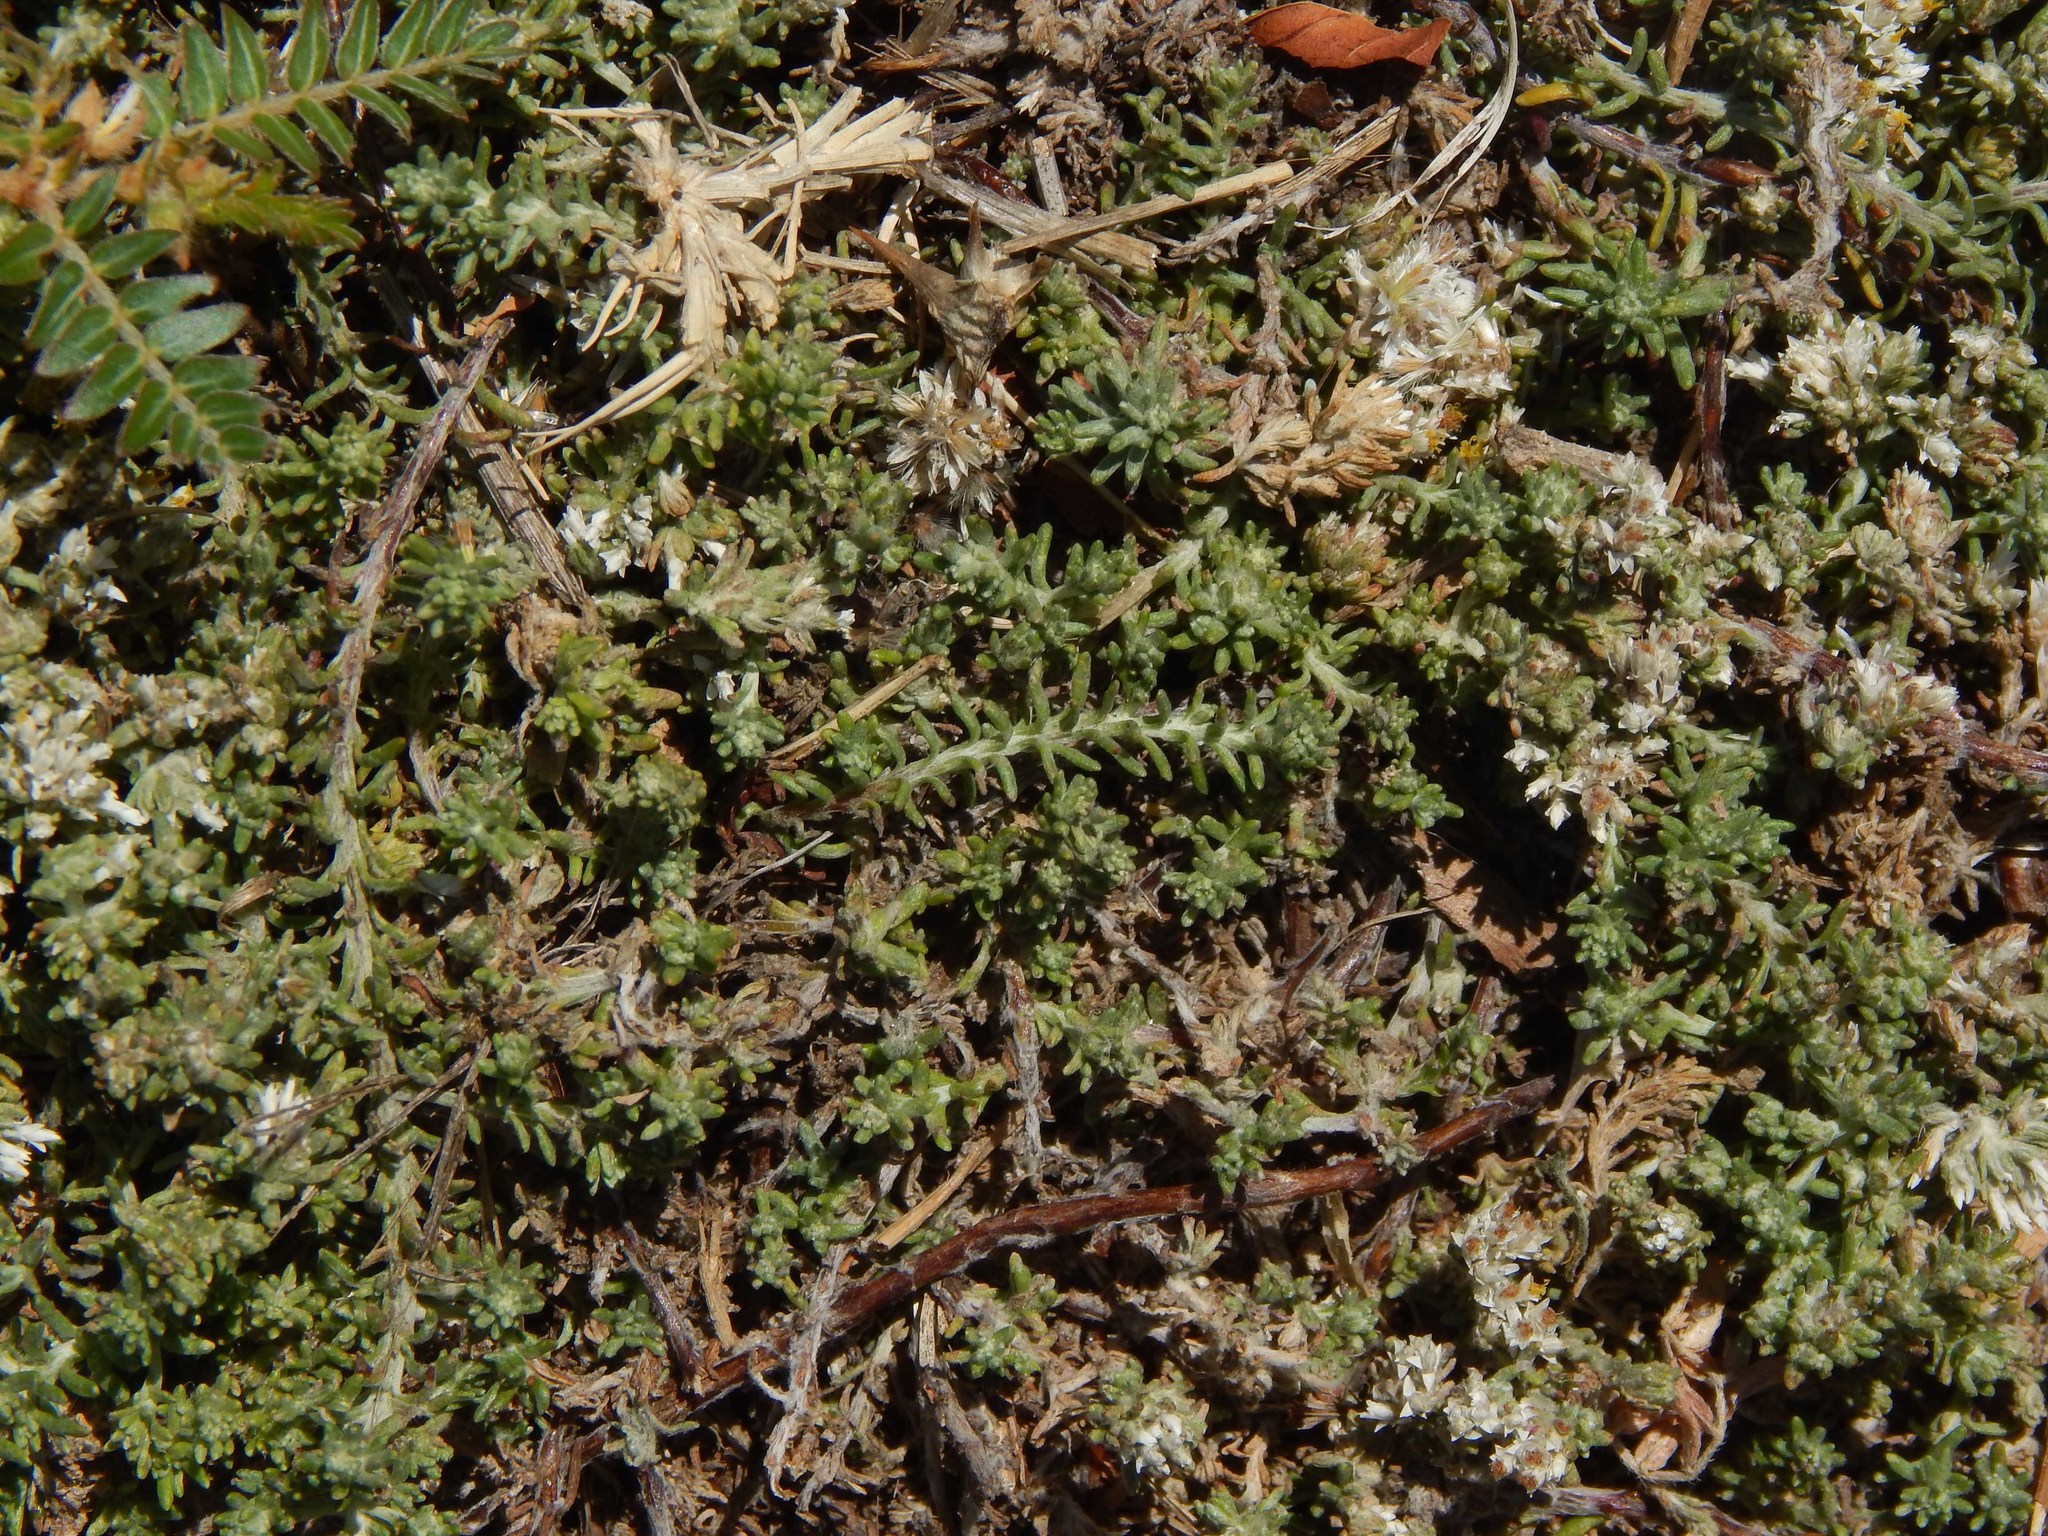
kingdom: Plantae
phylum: Tracheophyta
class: Magnoliopsida
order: Asterales
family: Asteraceae
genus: Helichrysum
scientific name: Helichrysum niveum
